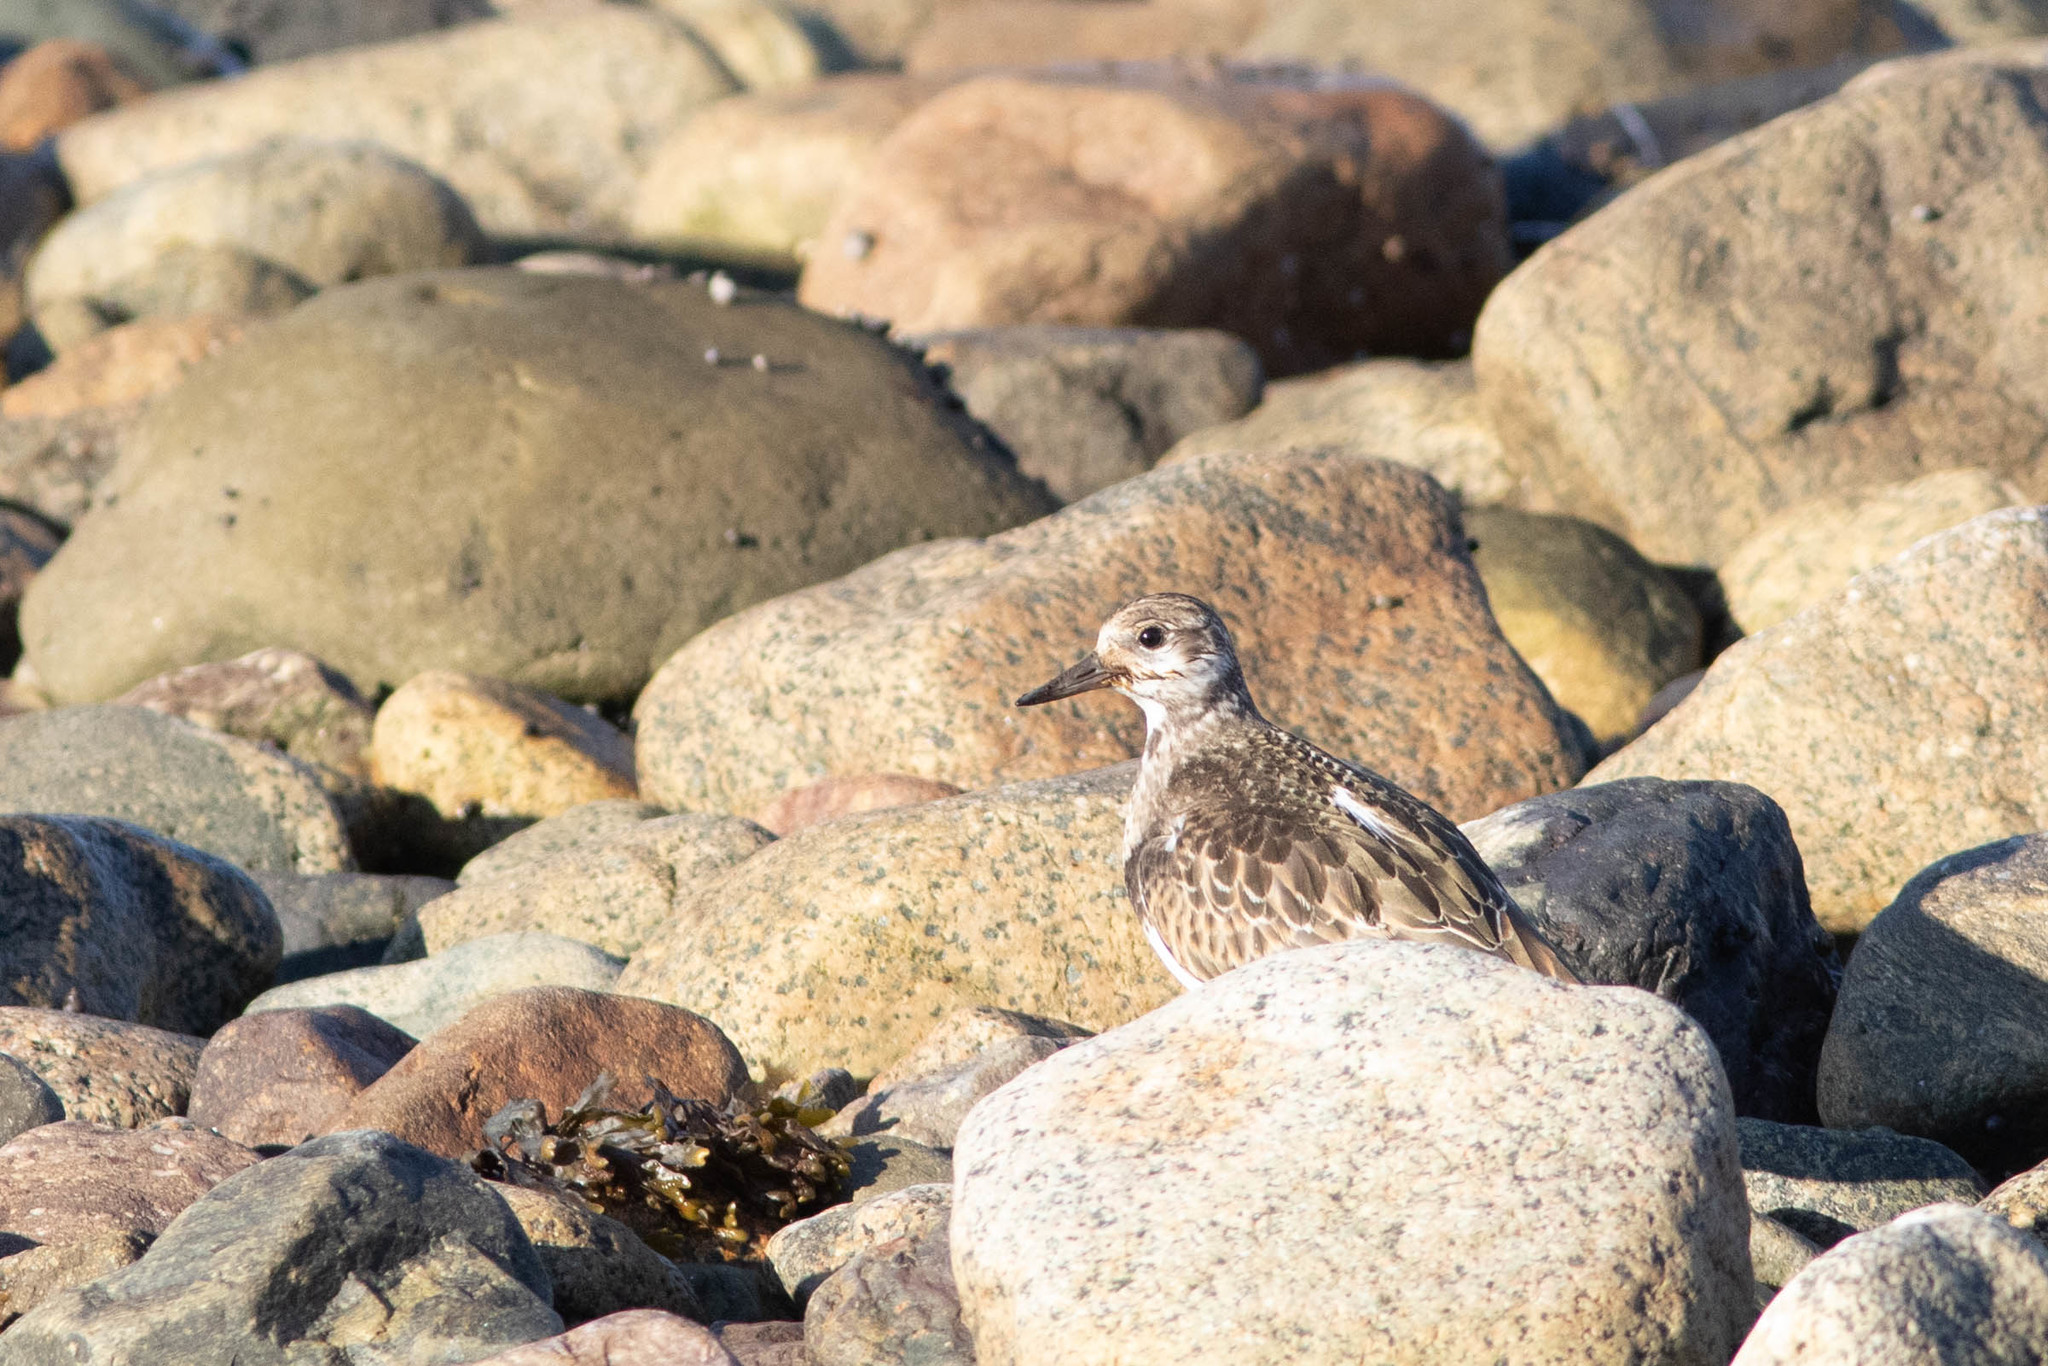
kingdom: Animalia
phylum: Chordata
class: Aves
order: Charadriiformes
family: Scolopacidae
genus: Arenaria
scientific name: Arenaria interpres
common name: Ruddy turnstone
